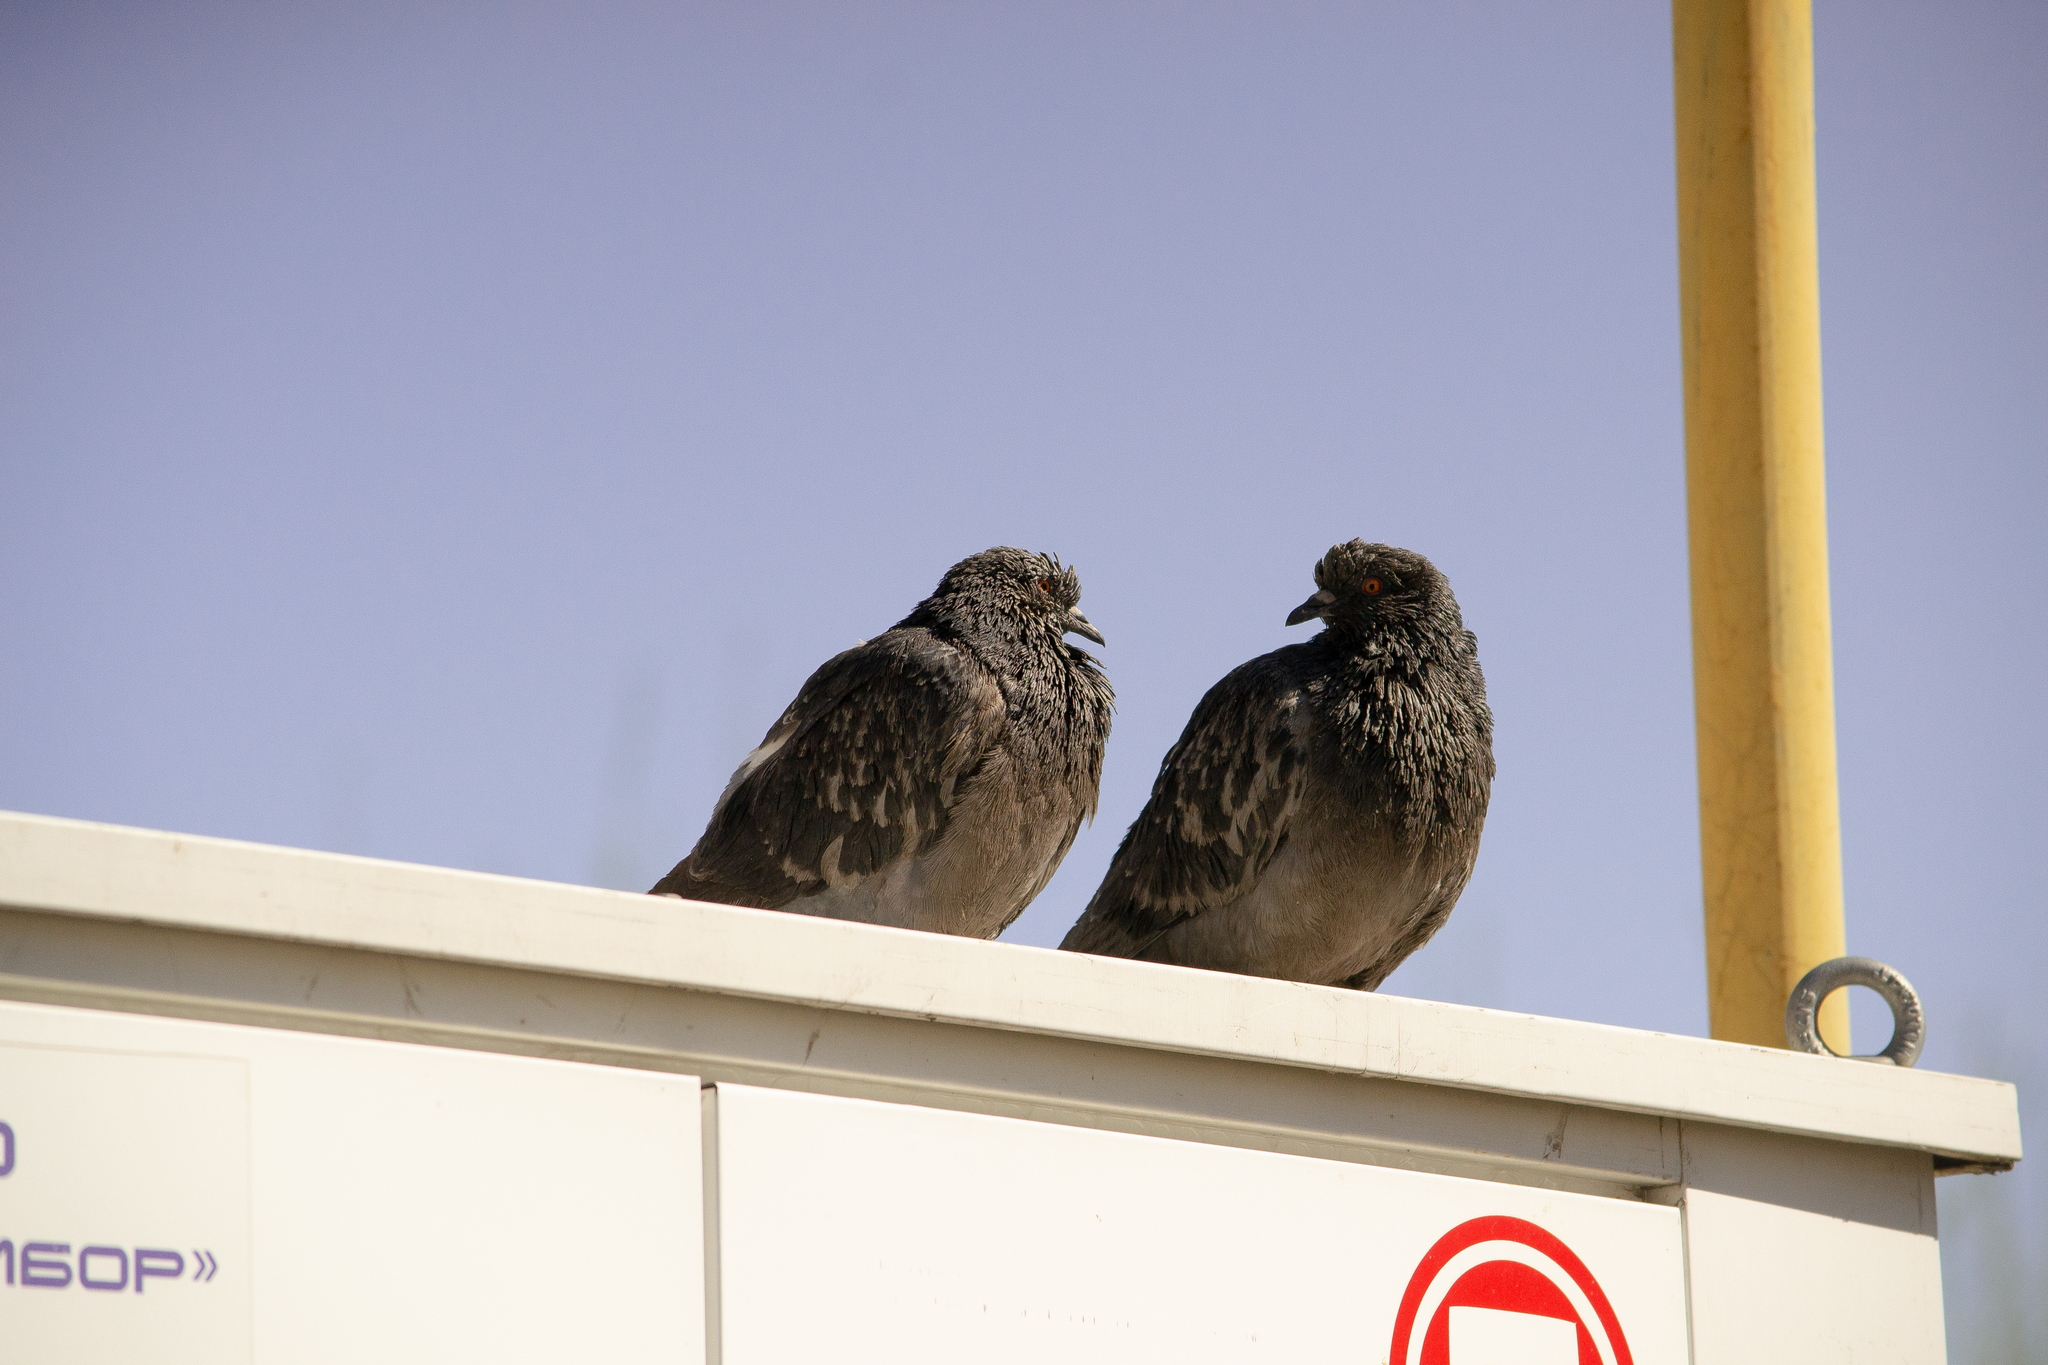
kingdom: Animalia
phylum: Chordata
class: Aves
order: Columbiformes
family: Columbidae
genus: Columba
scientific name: Columba livia
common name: Rock pigeon
